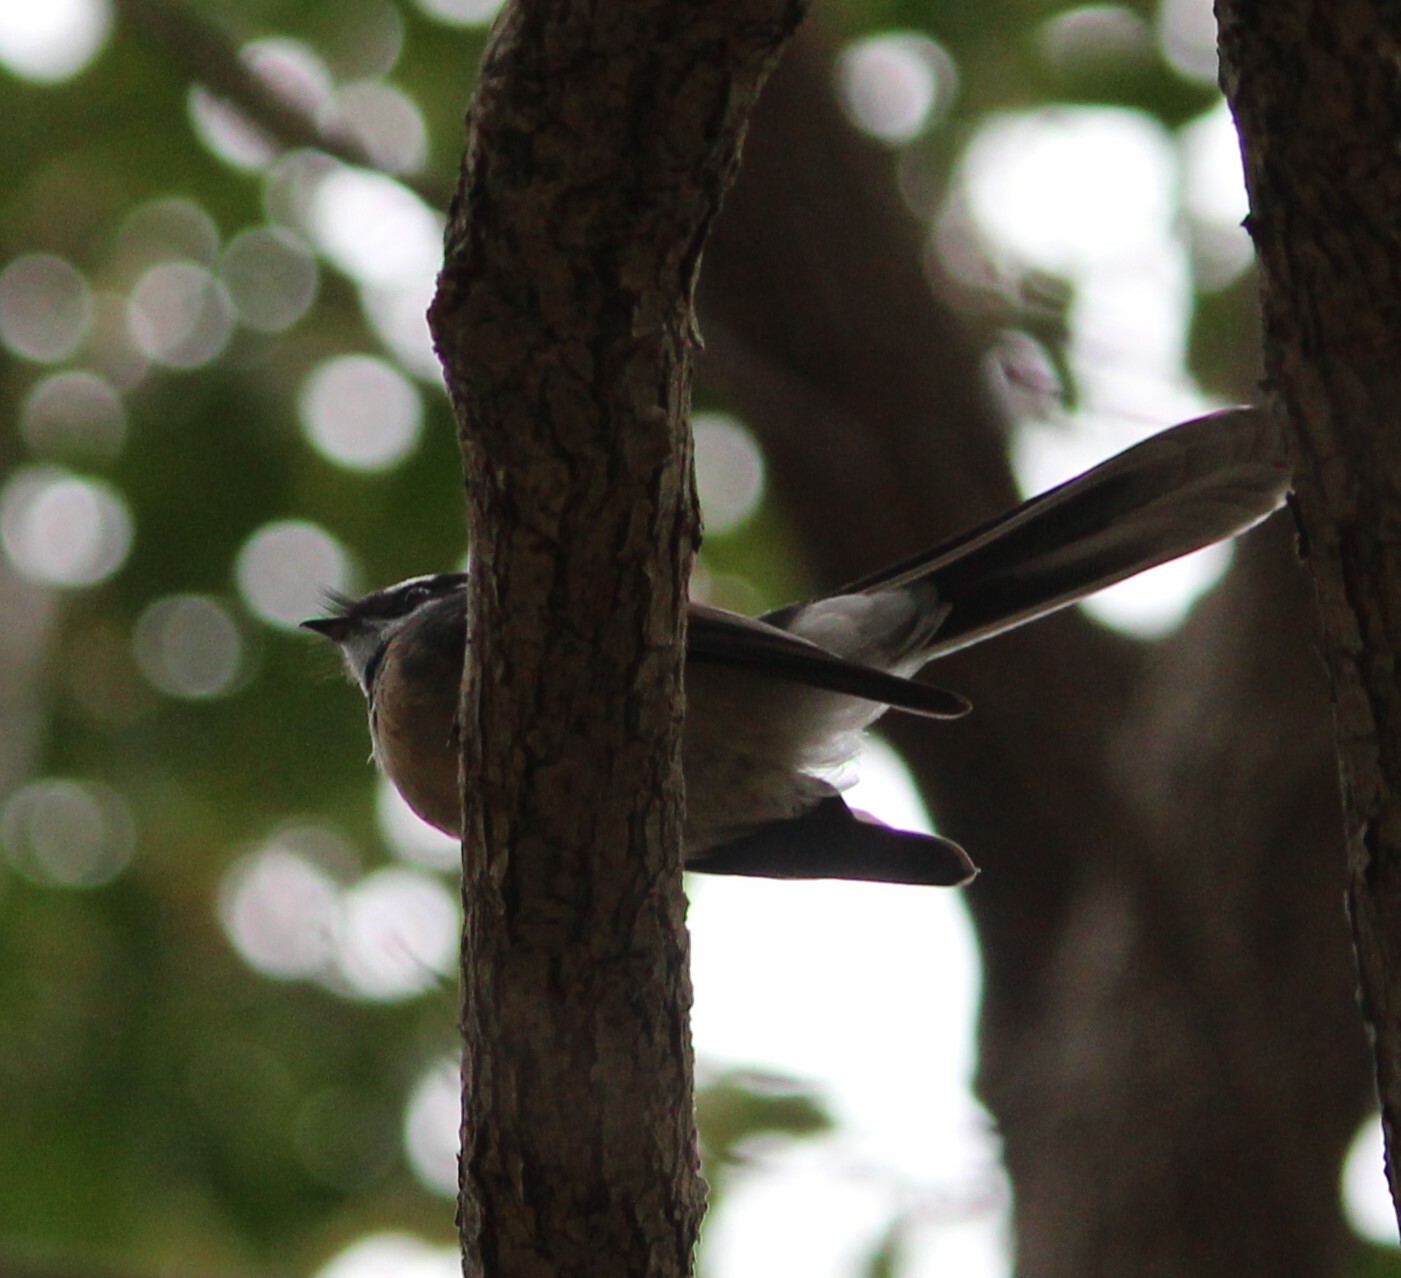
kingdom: Animalia
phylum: Chordata
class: Aves
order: Passeriformes
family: Rhipiduridae
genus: Rhipidura
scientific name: Rhipidura albiscapa
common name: Grey fantail
